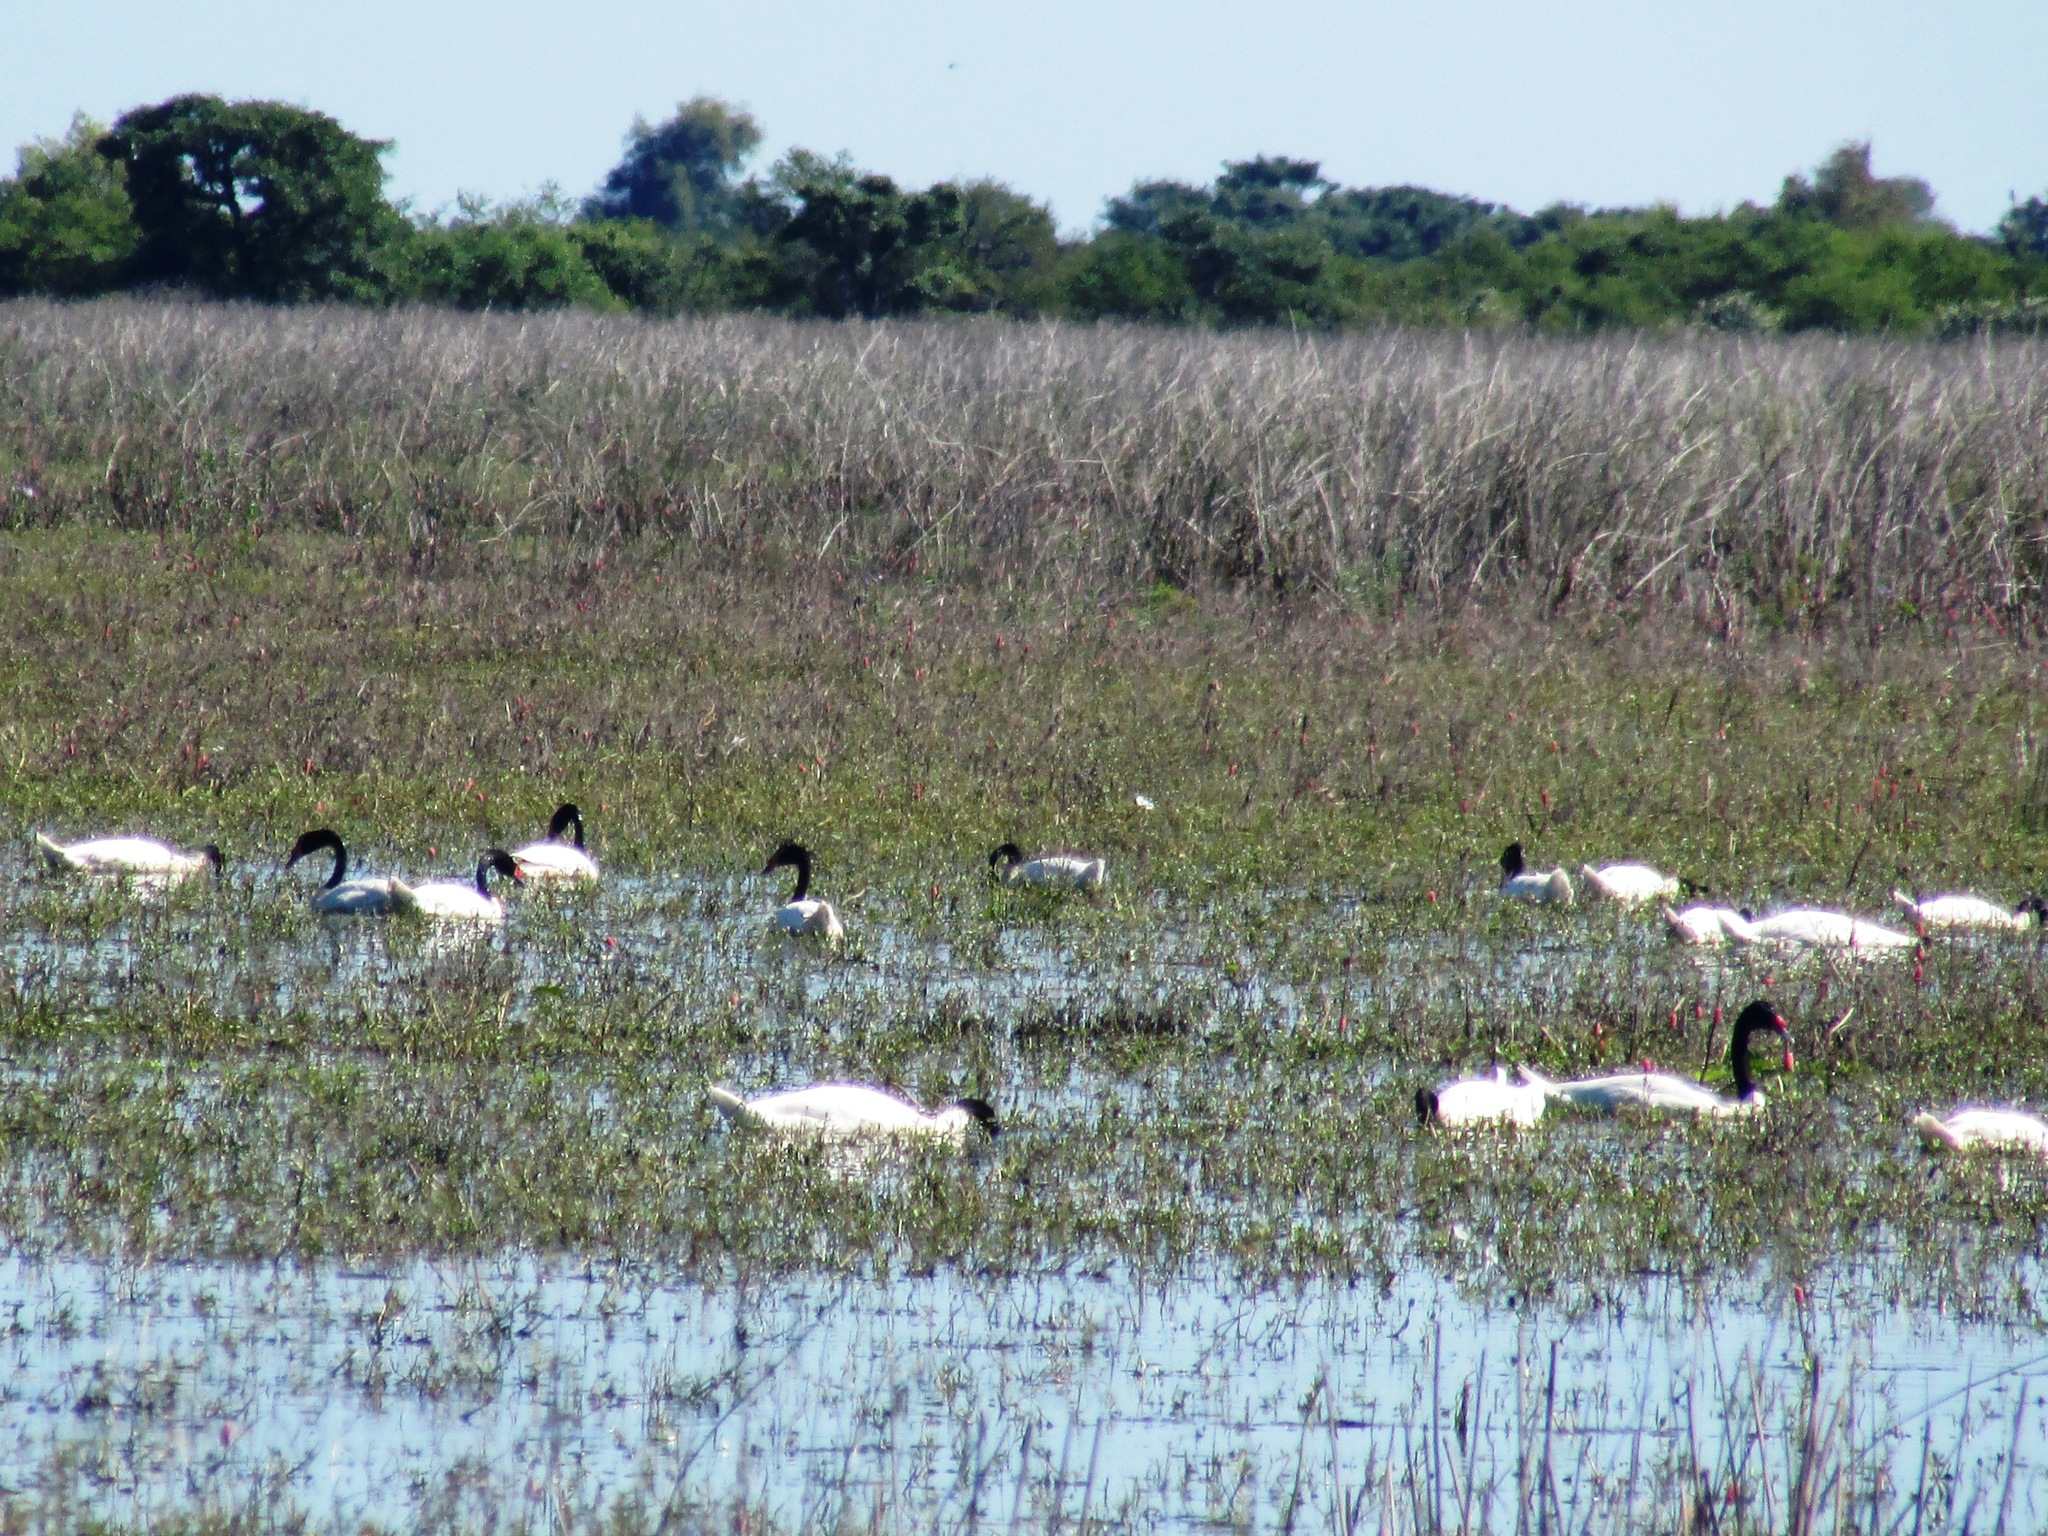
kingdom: Animalia
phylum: Chordata
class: Aves
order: Anseriformes
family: Anatidae
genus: Cygnus
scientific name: Cygnus melancoryphus
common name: Black-necked swan
